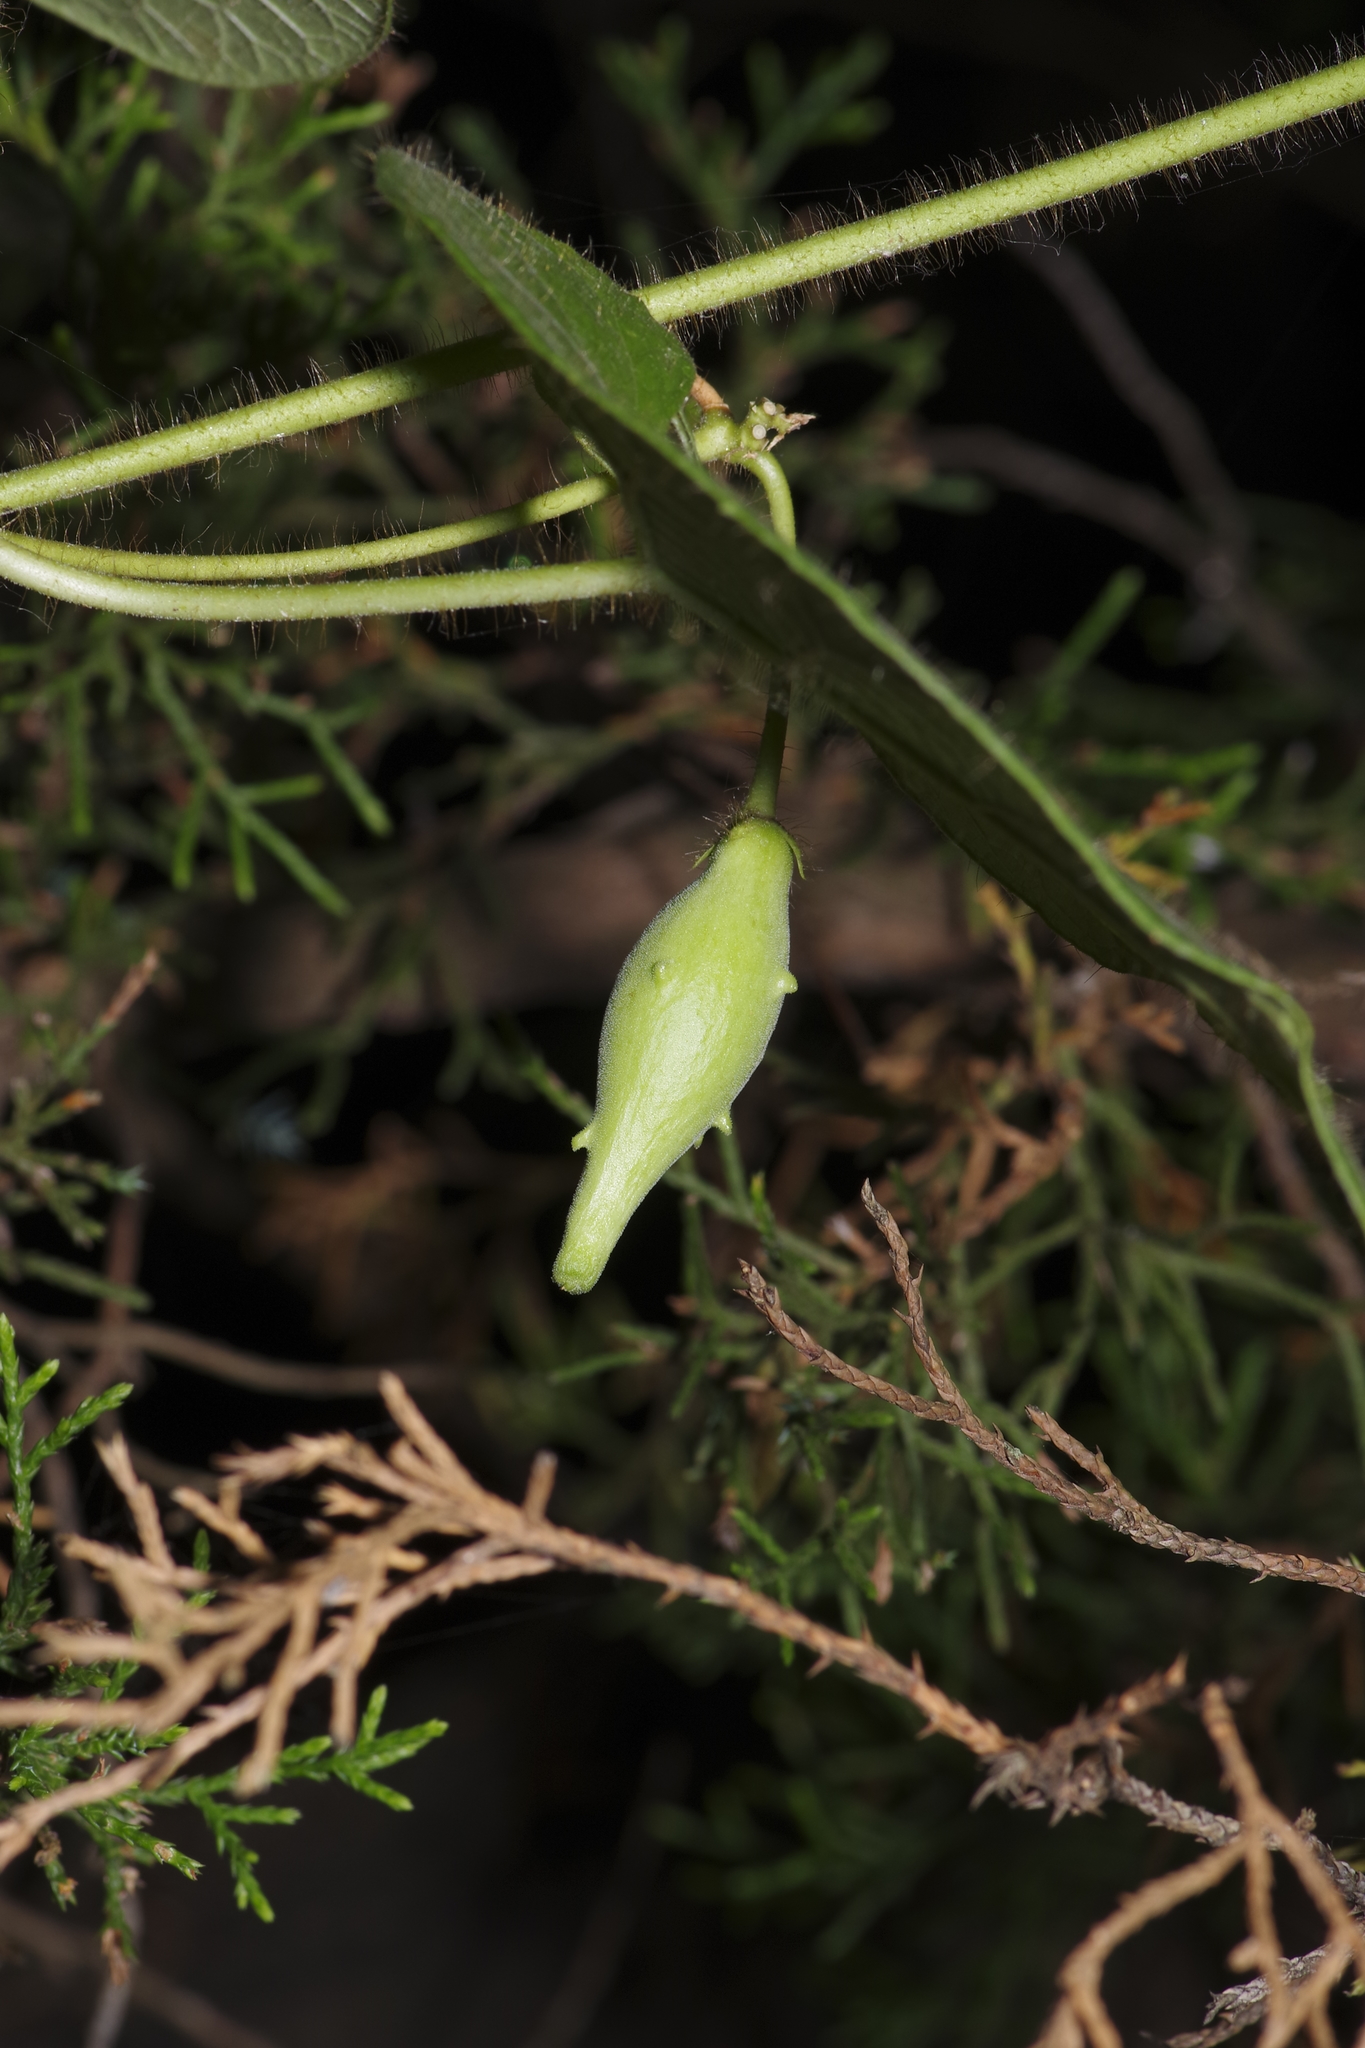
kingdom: Plantae
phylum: Tracheophyta
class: Magnoliopsida
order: Gentianales
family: Apocynaceae
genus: Dictyanthus
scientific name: Dictyanthus reticulatus
